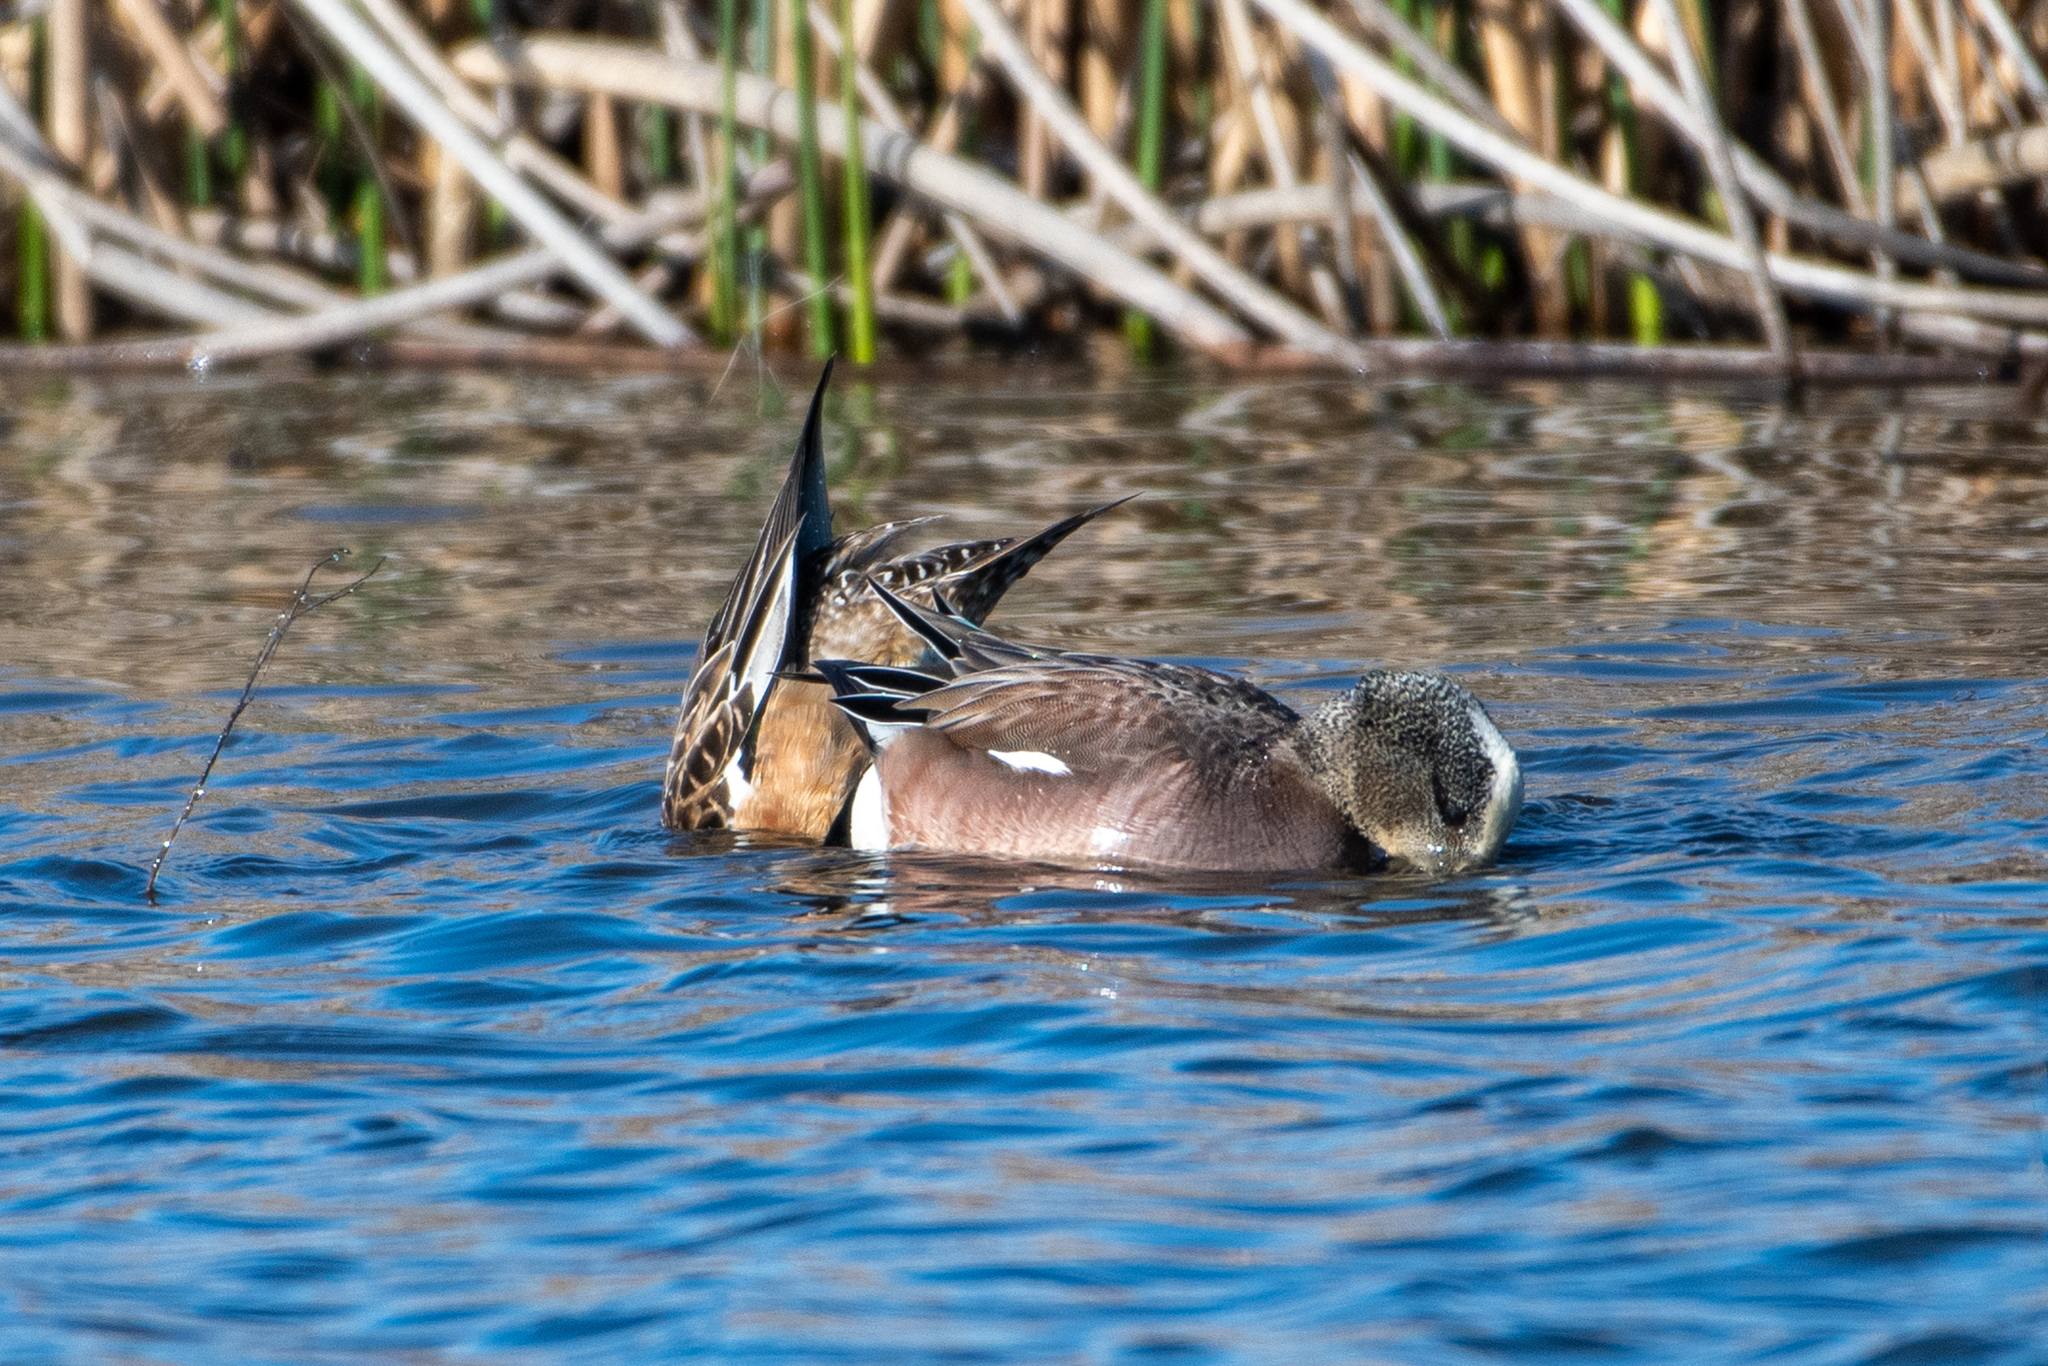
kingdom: Animalia
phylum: Chordata
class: Aves
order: Anseriformes
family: Anatidae
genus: Mareca
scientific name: Mareca americana
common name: American wigeon
